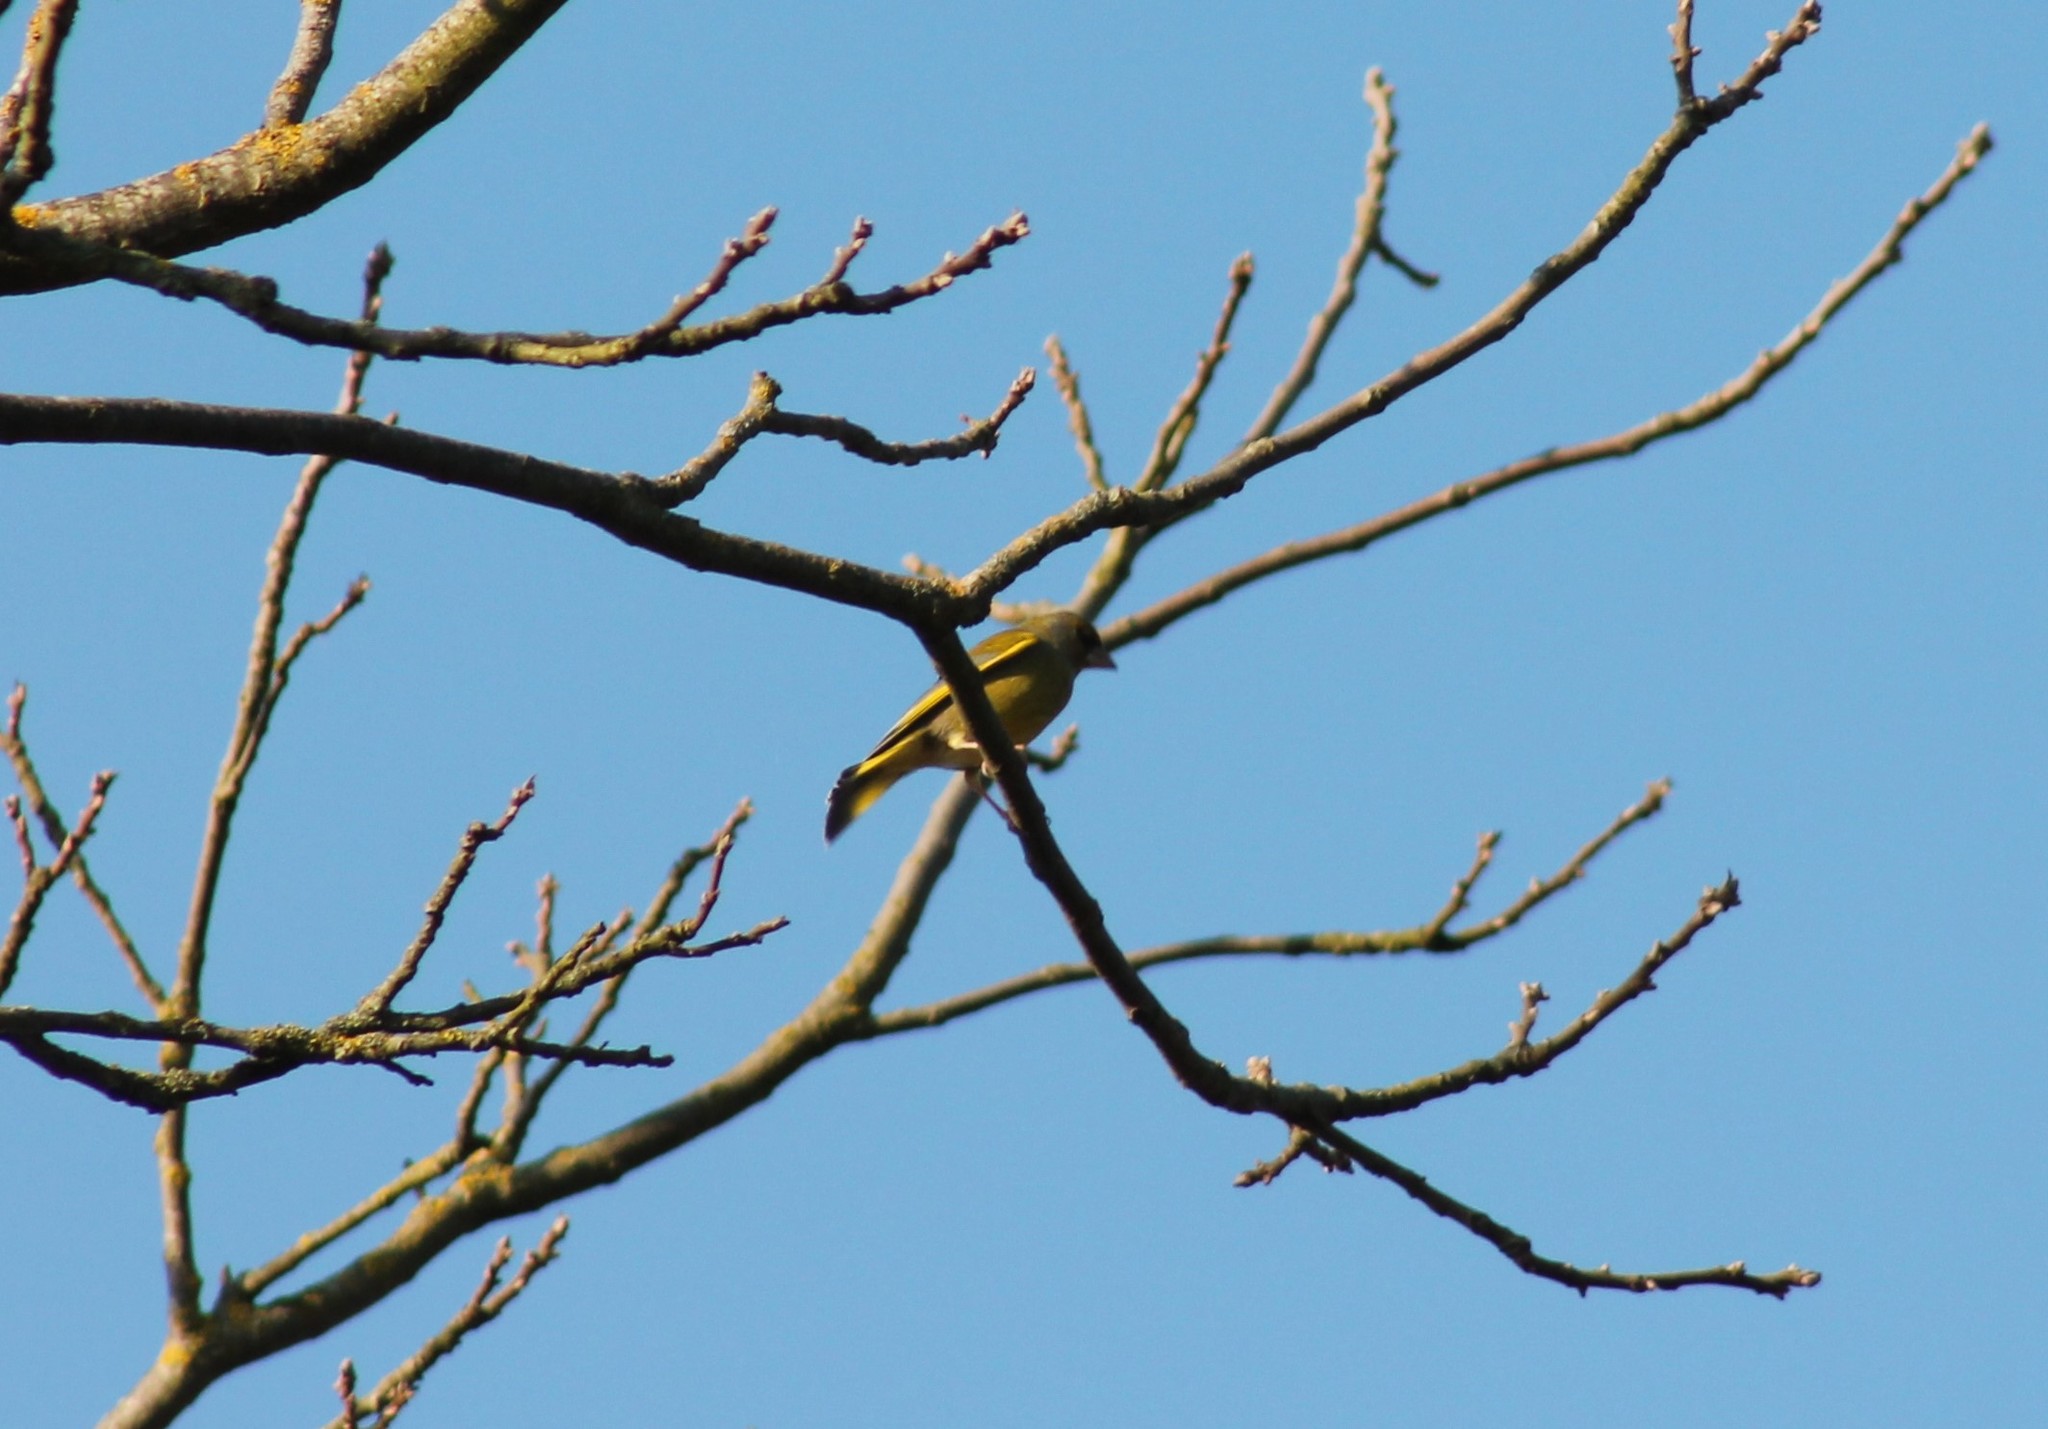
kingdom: Plantae
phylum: Tracheophyta
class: Liliopsida
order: Poales
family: Poaceae
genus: Chloris
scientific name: Chloris chloris
